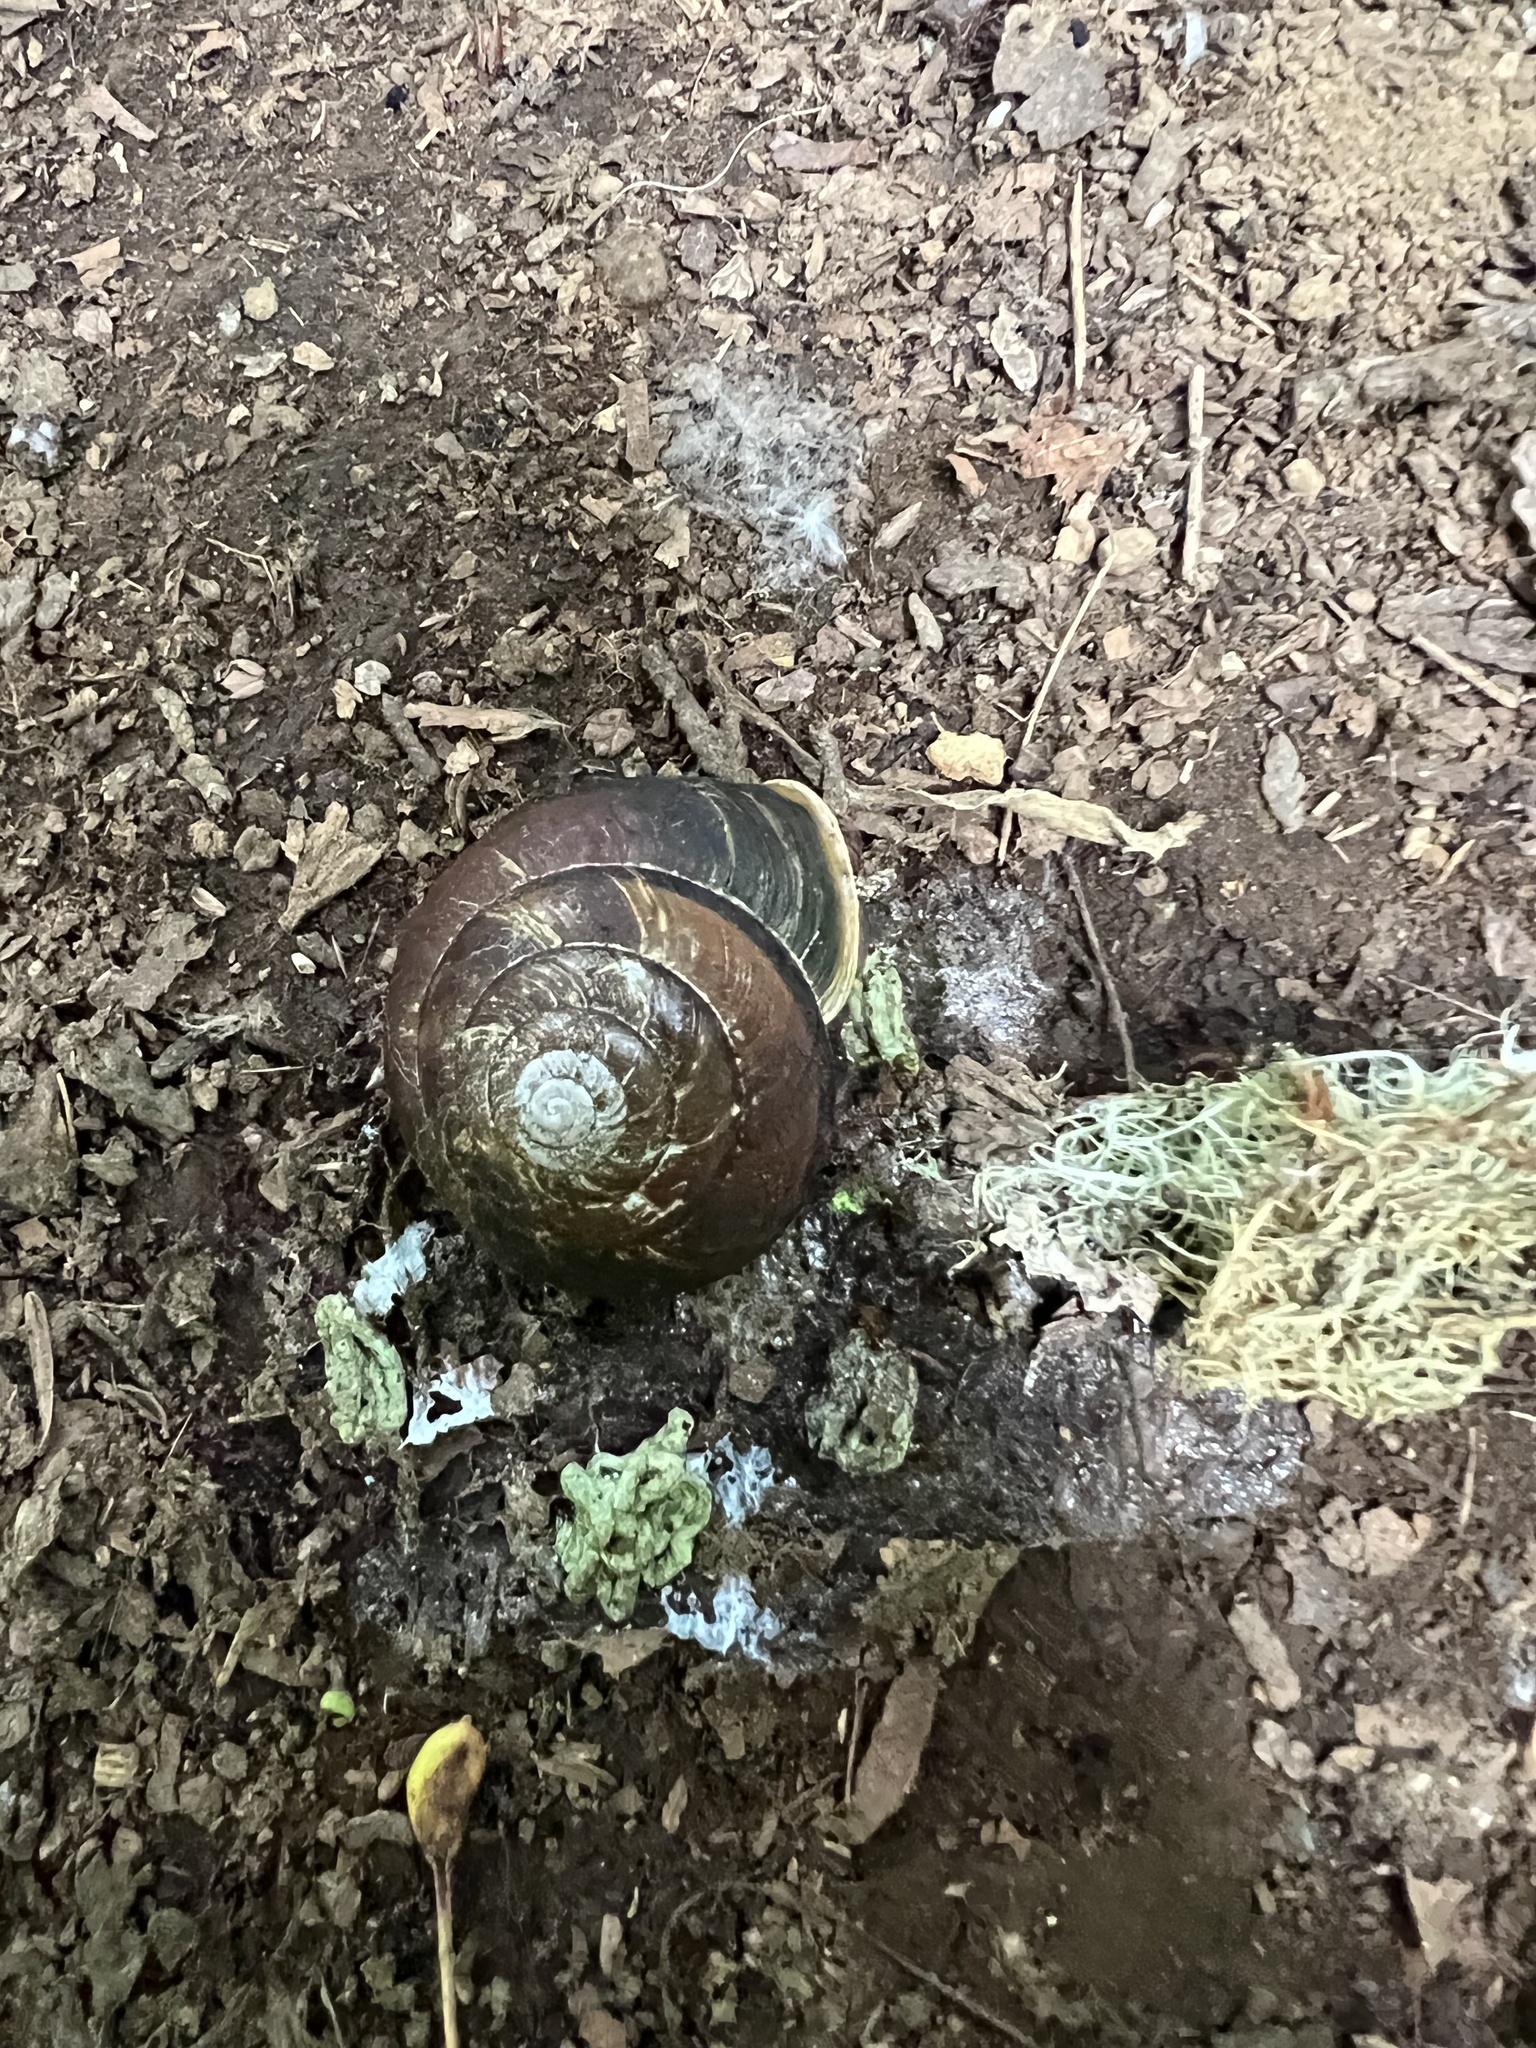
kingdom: Animalia
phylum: Mollusca
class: Gastropoda
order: Stylommatophora
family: Xanthonychidae
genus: Monadenia
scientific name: Monadenia fidelis
